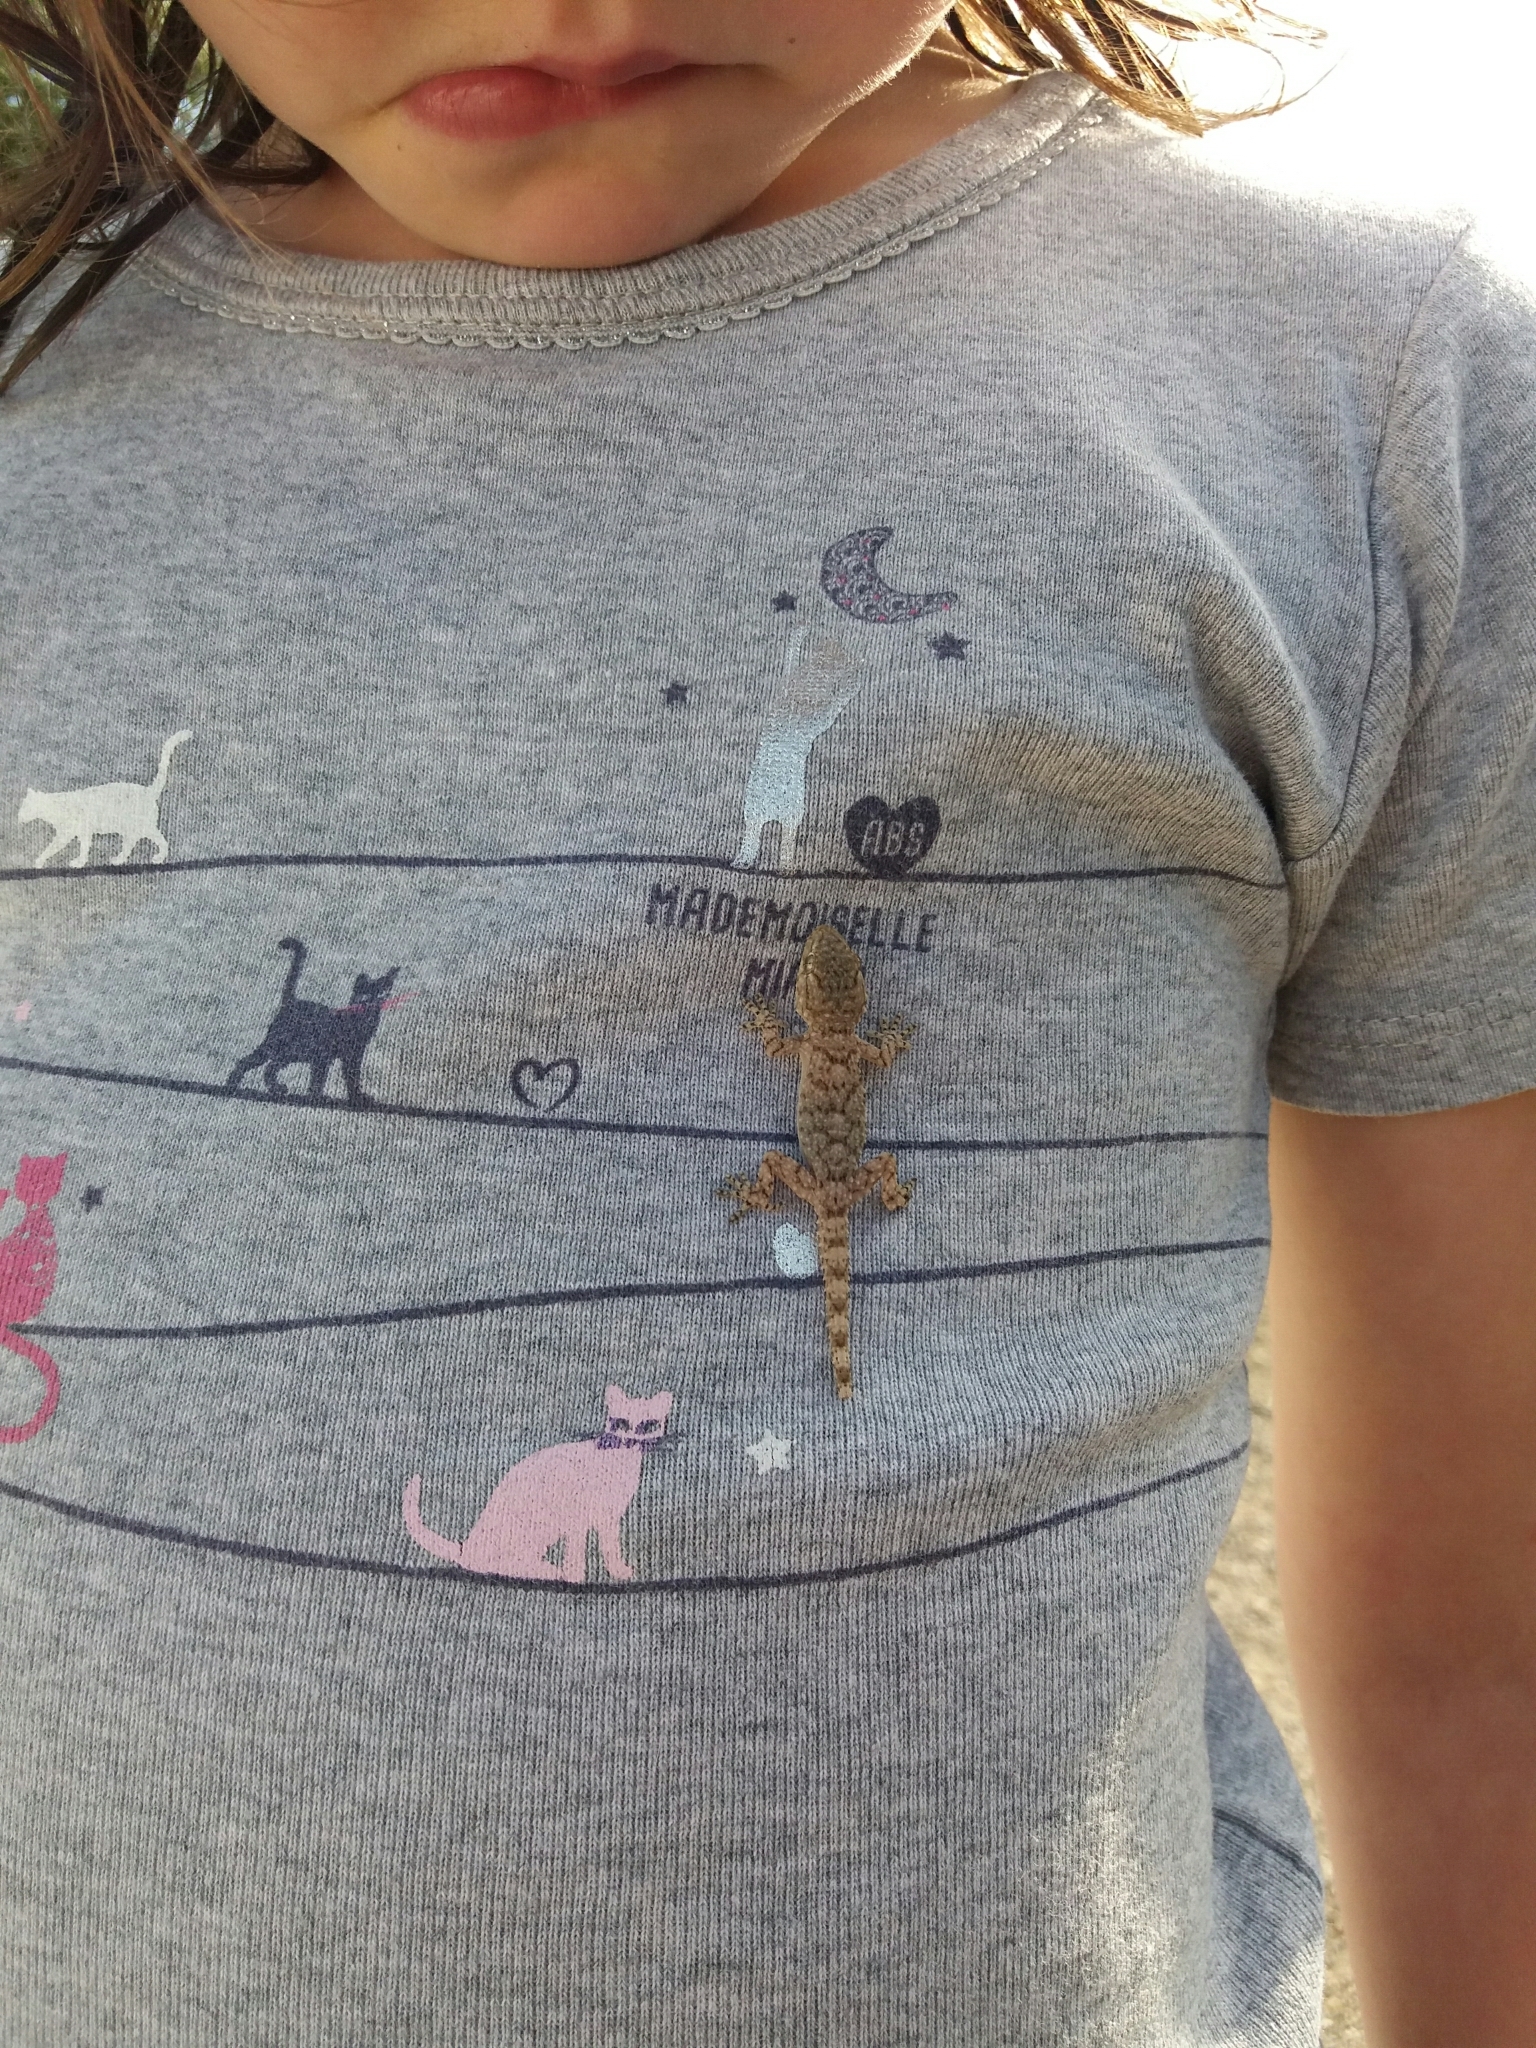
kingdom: Animalia
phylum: Chordata
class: Squamata
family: Phyllodactylidae
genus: Tarentola
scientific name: Tarentola mauritanica
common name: Moorish gecko
